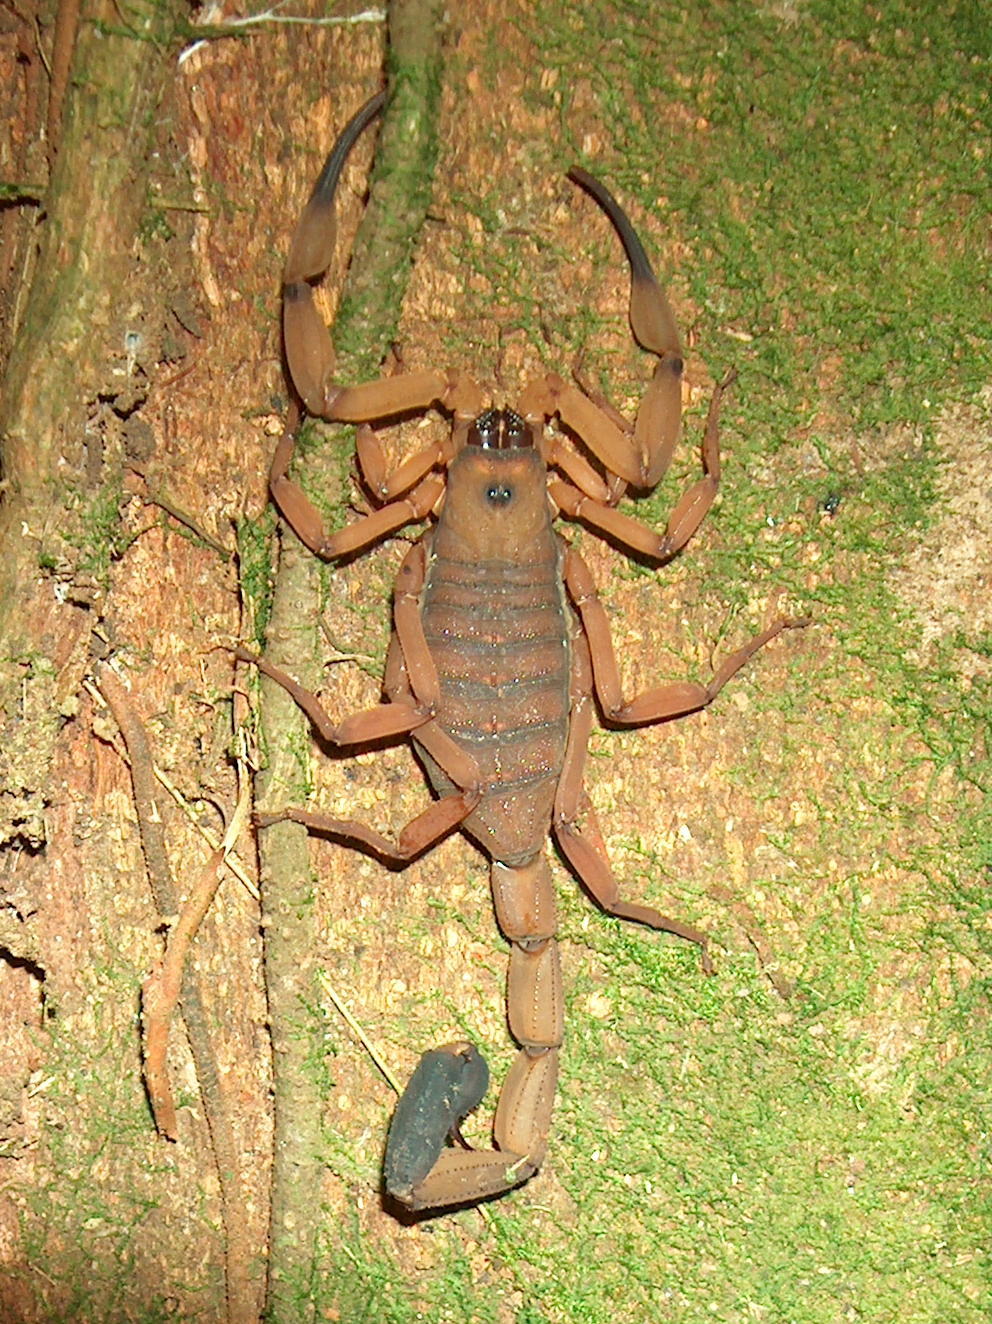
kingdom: Animalia
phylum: Arthropoda
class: Arachnida
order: Scorpiones
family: Buthidae
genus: Centruroides
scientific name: Centruroides limbatus
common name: Scorpions
